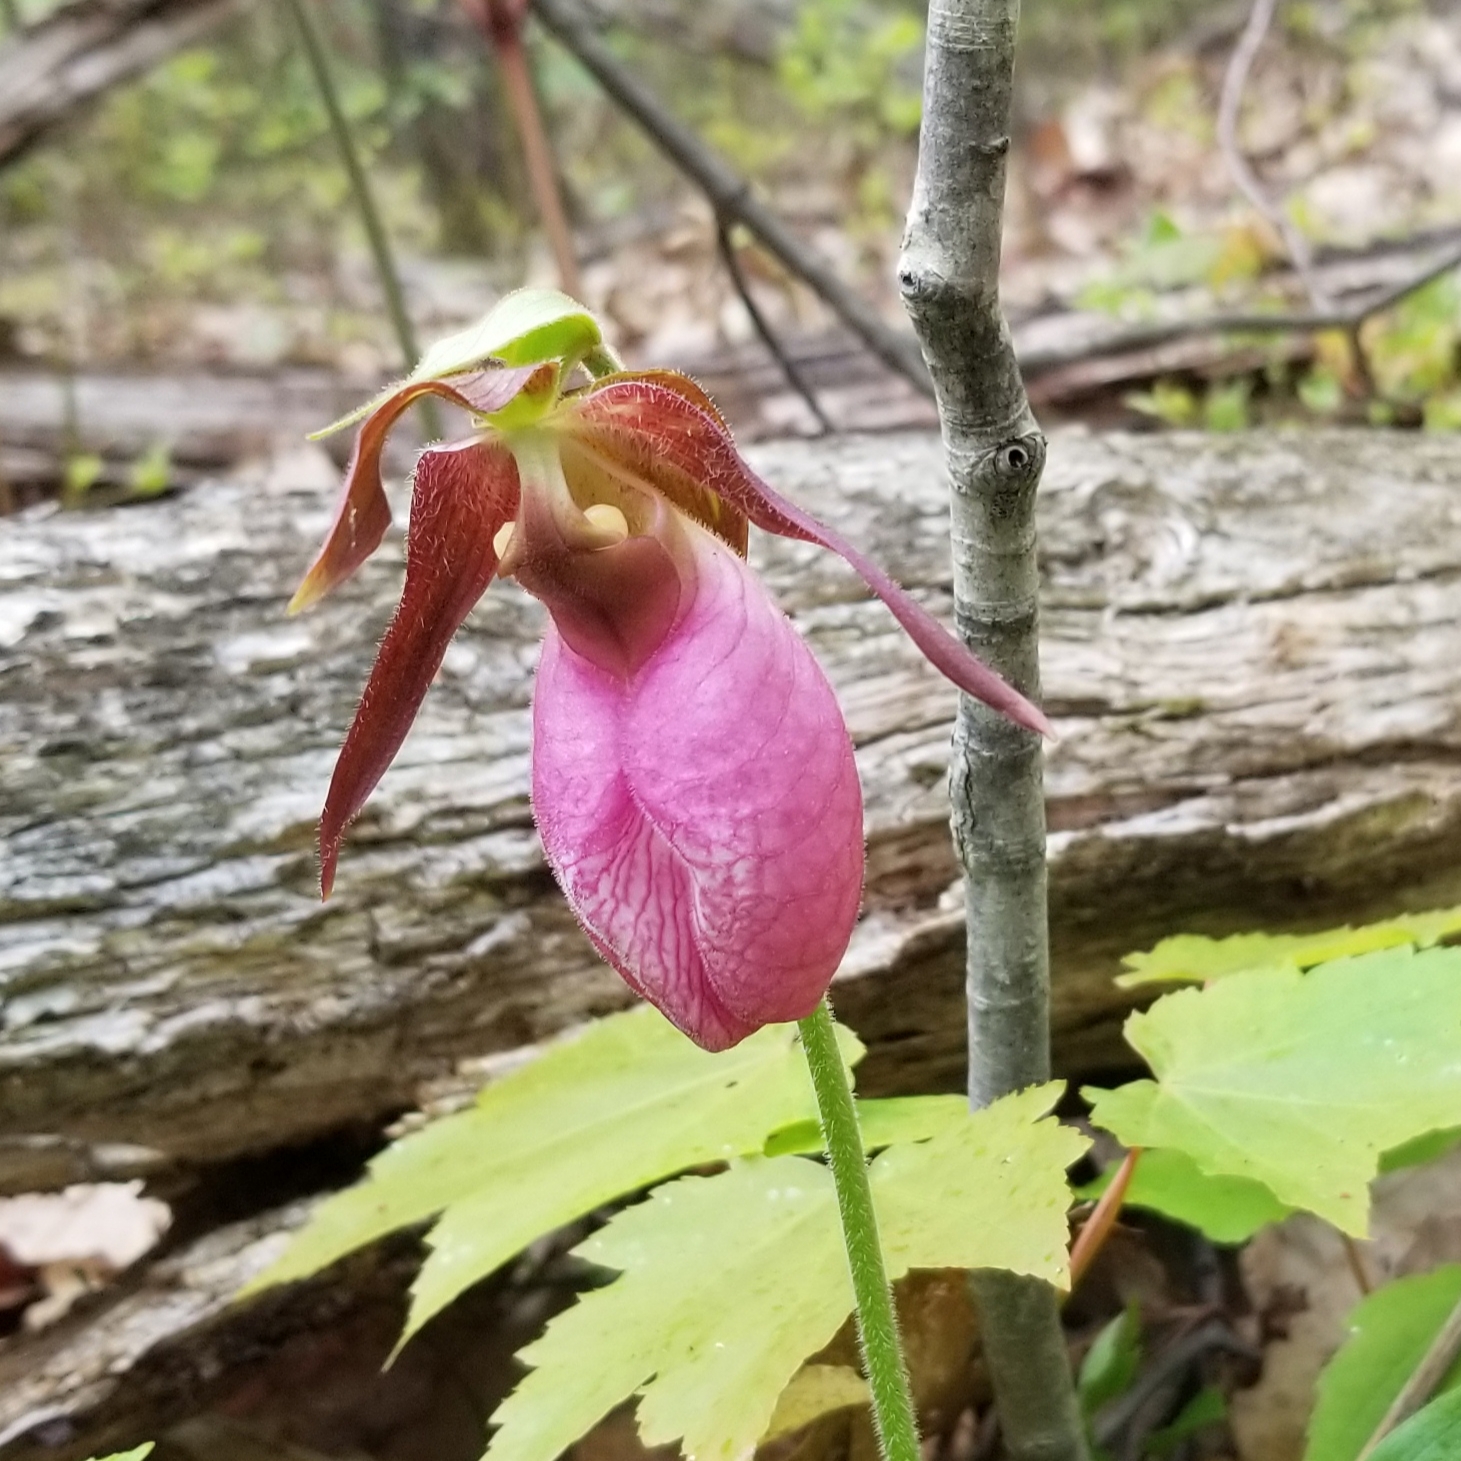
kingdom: Plantae
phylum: Tracheophyta
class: Liliopsida
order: Asparagales
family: Orchidaceae
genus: Cypripedium
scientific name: Cypripedium acaule
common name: Pink lady's-slipper
